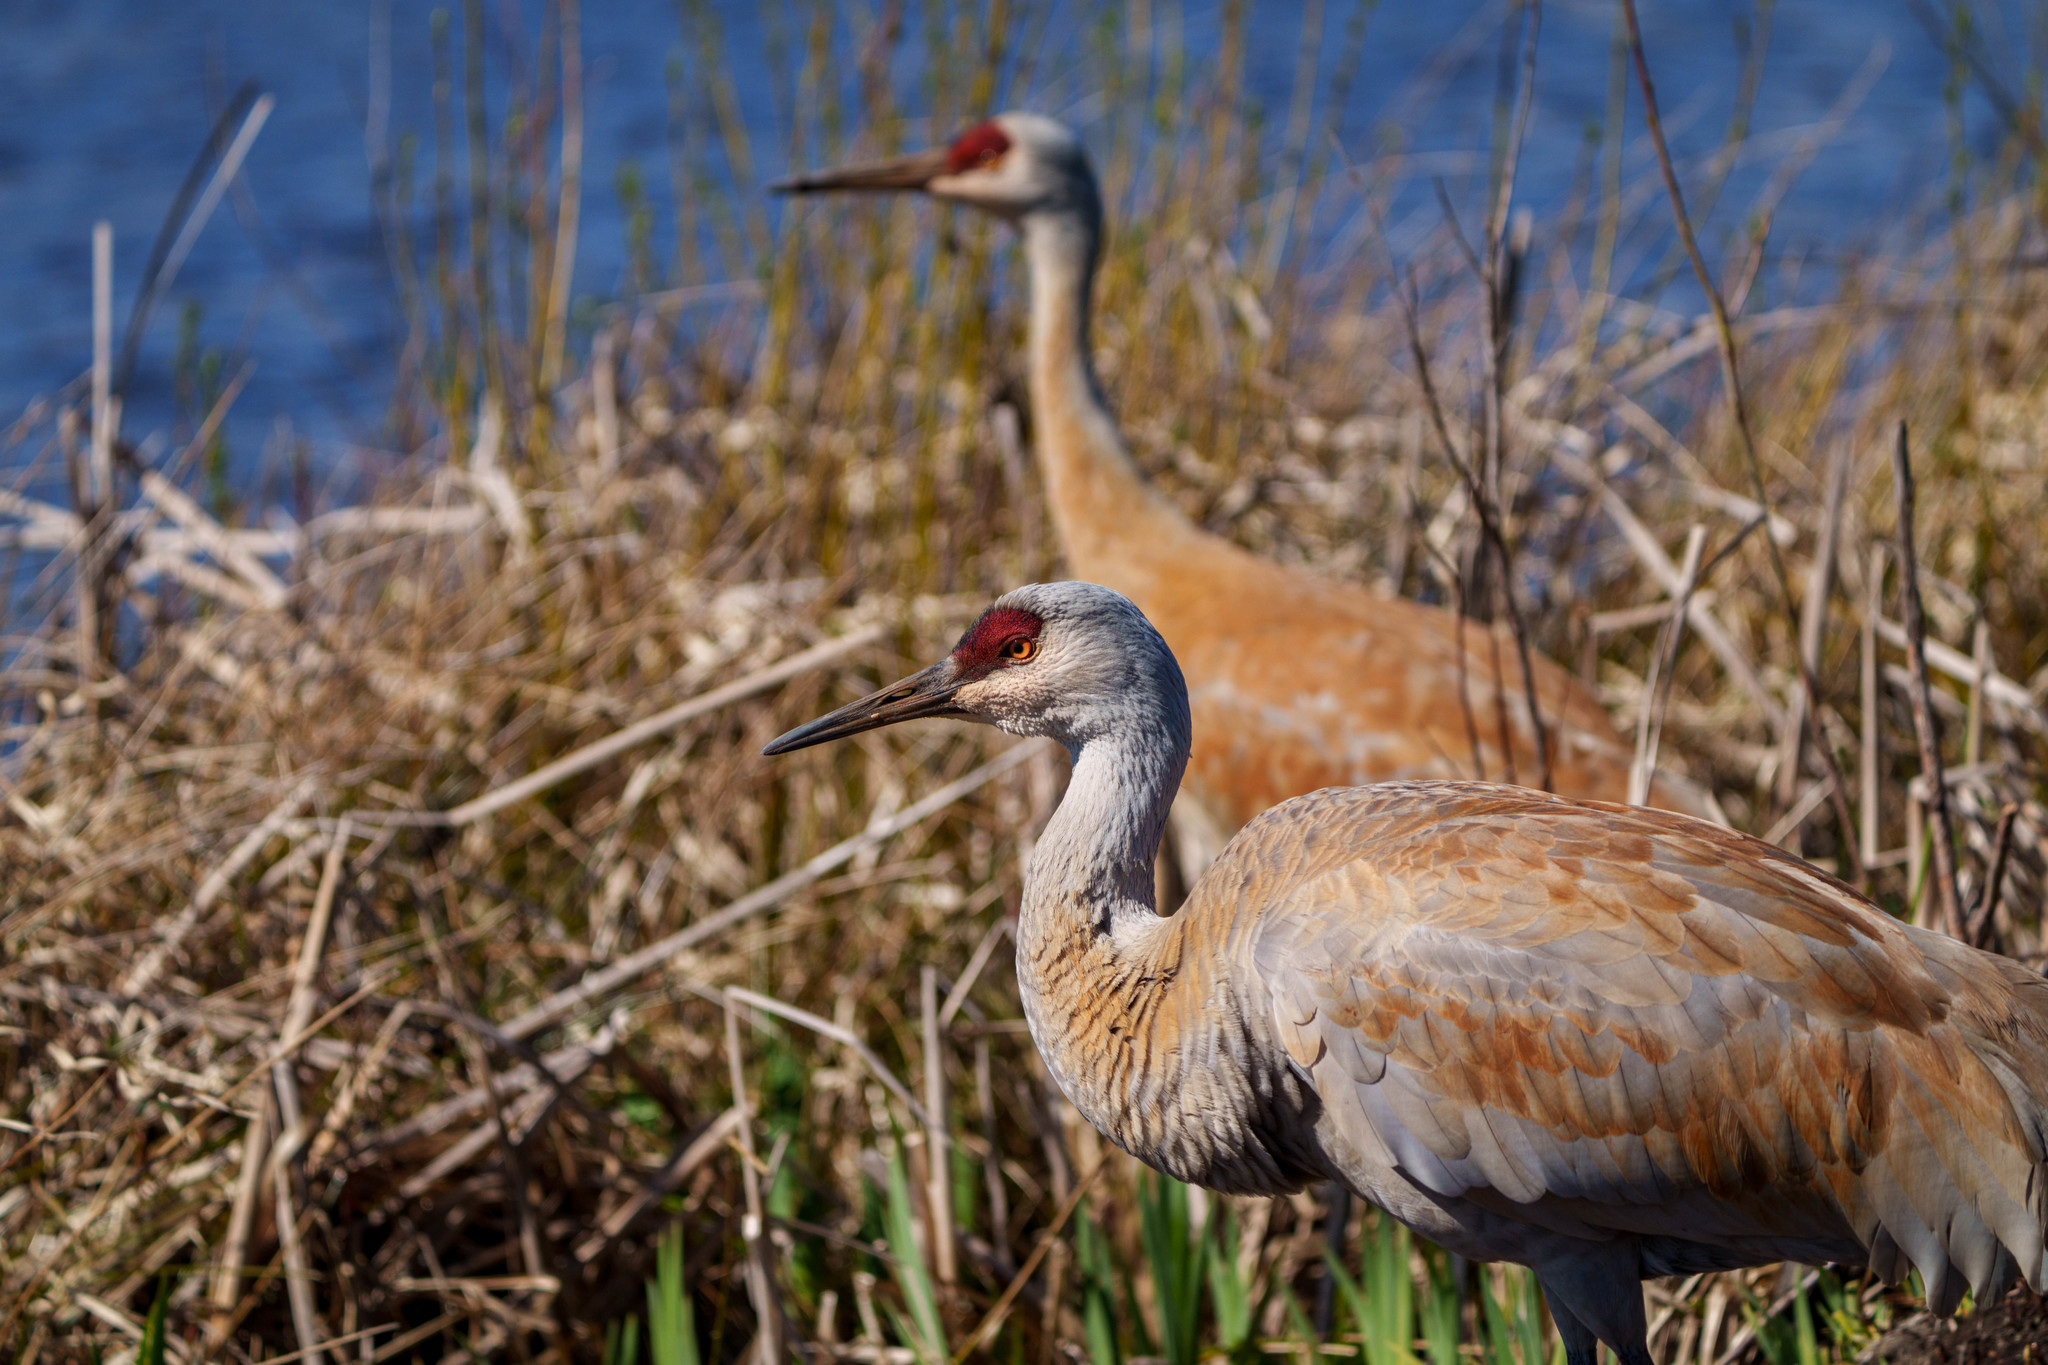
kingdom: Animalia
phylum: Chordata
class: Aves
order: Gruiformes
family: Gruidae
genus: Grus
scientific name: Grus canadensis
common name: Sandhill crane
